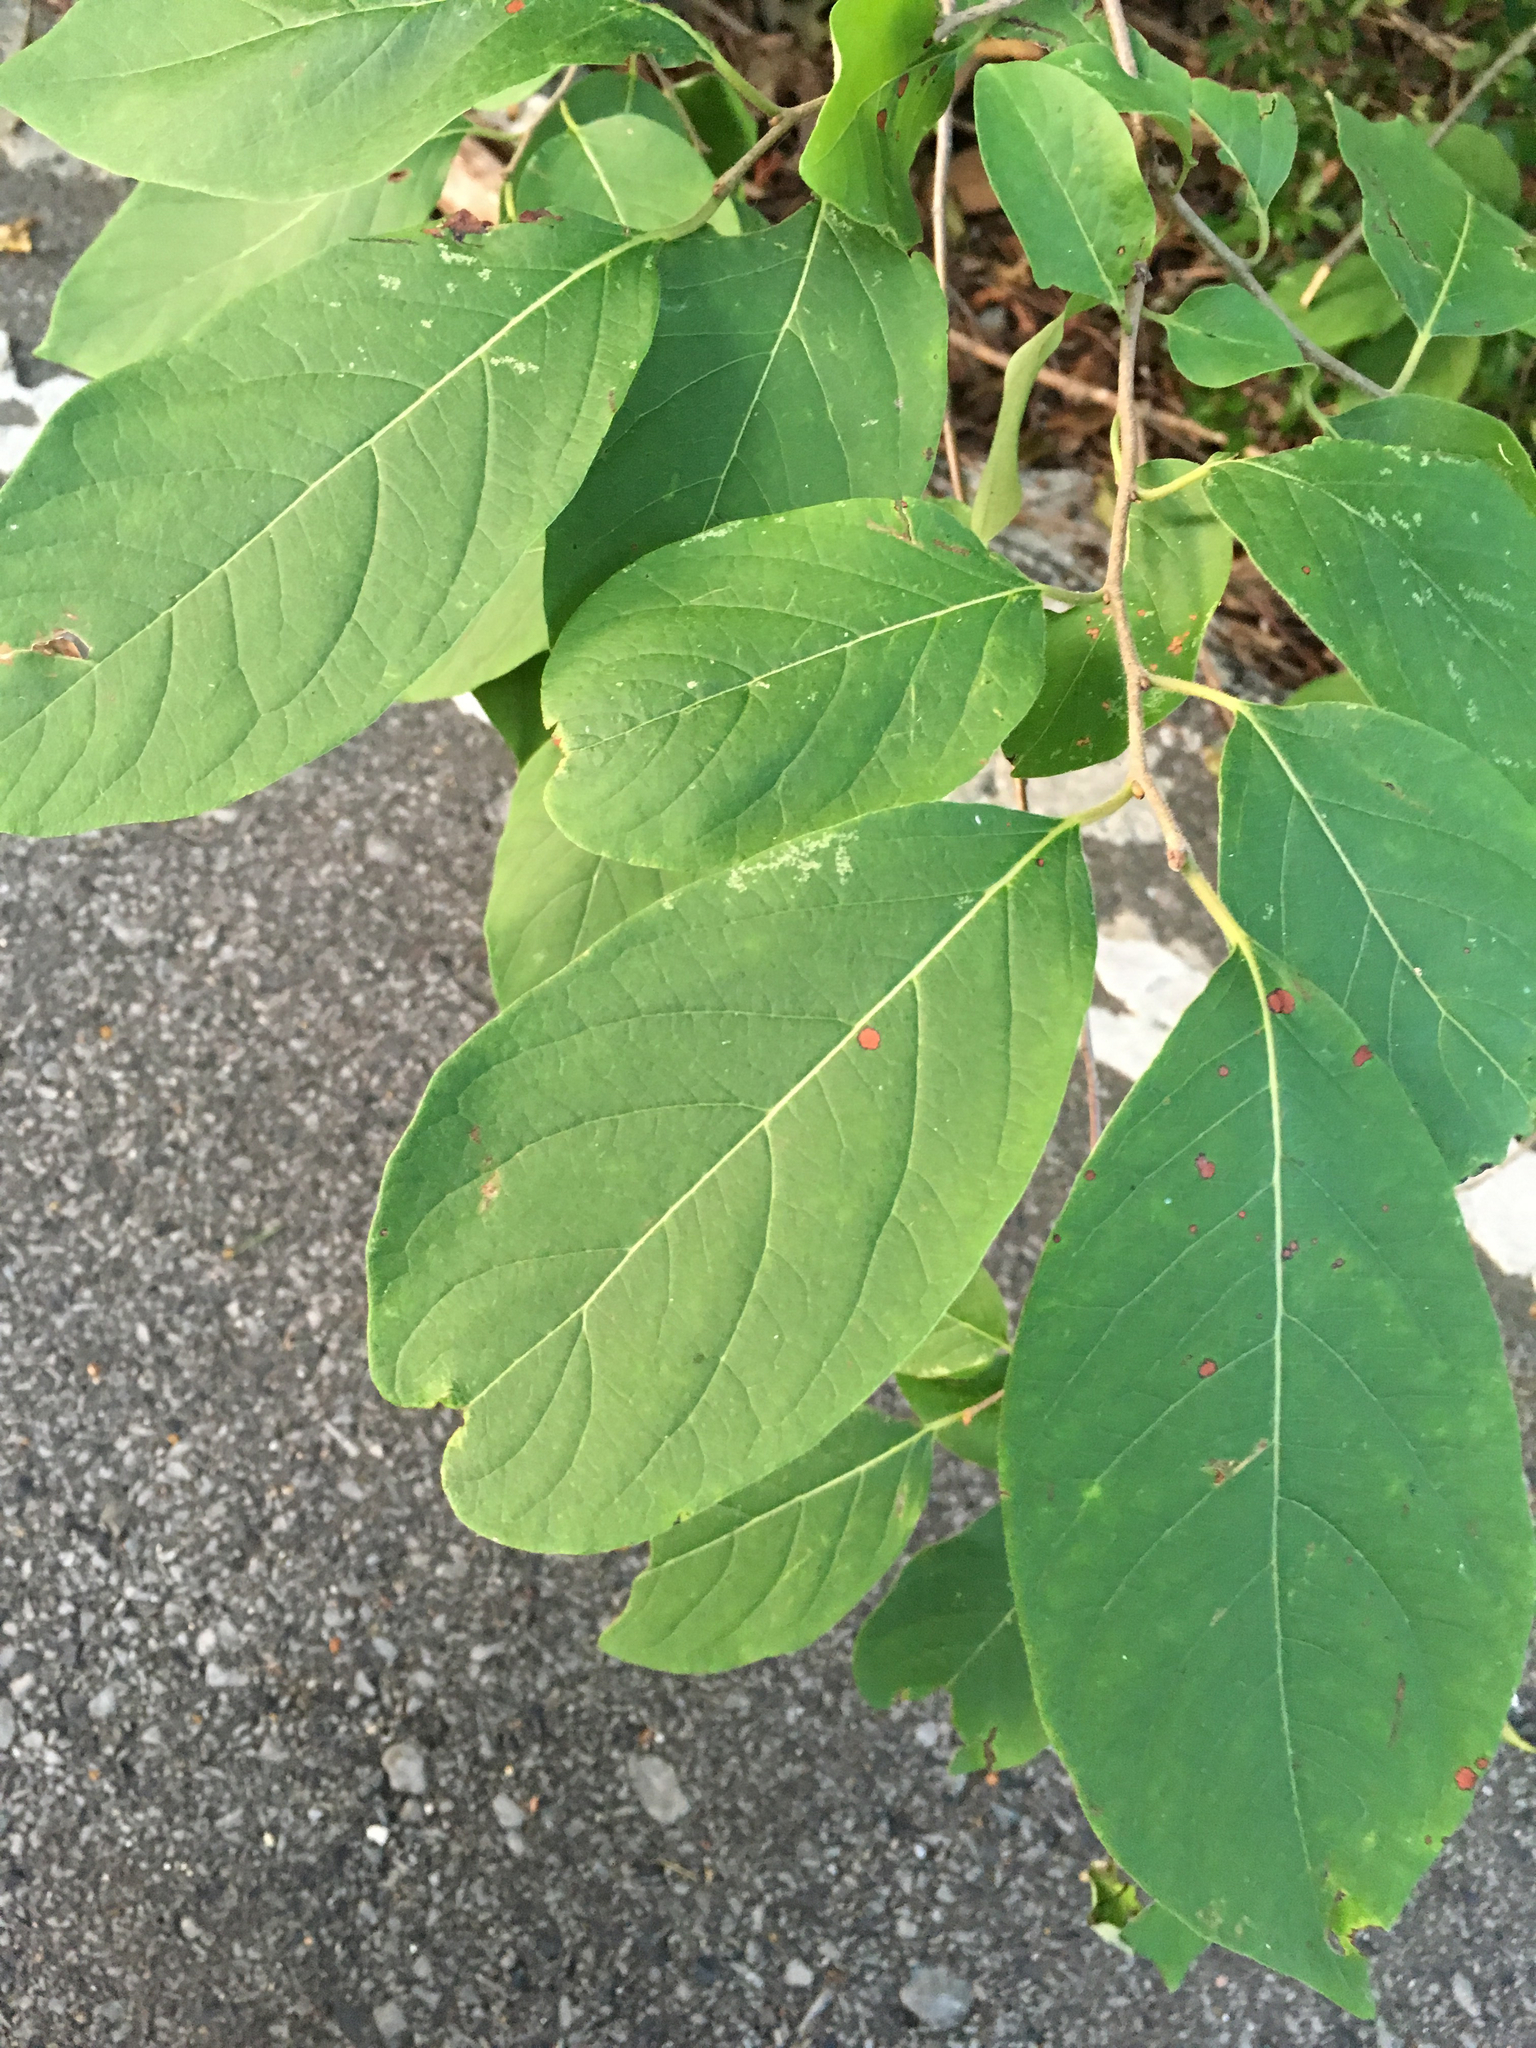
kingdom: Plantae
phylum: Tracheophyta
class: Magnoliopsida
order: Ericales
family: Ebenaceae
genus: Diospyros
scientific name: Diospyros virginiana
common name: Persimmon
